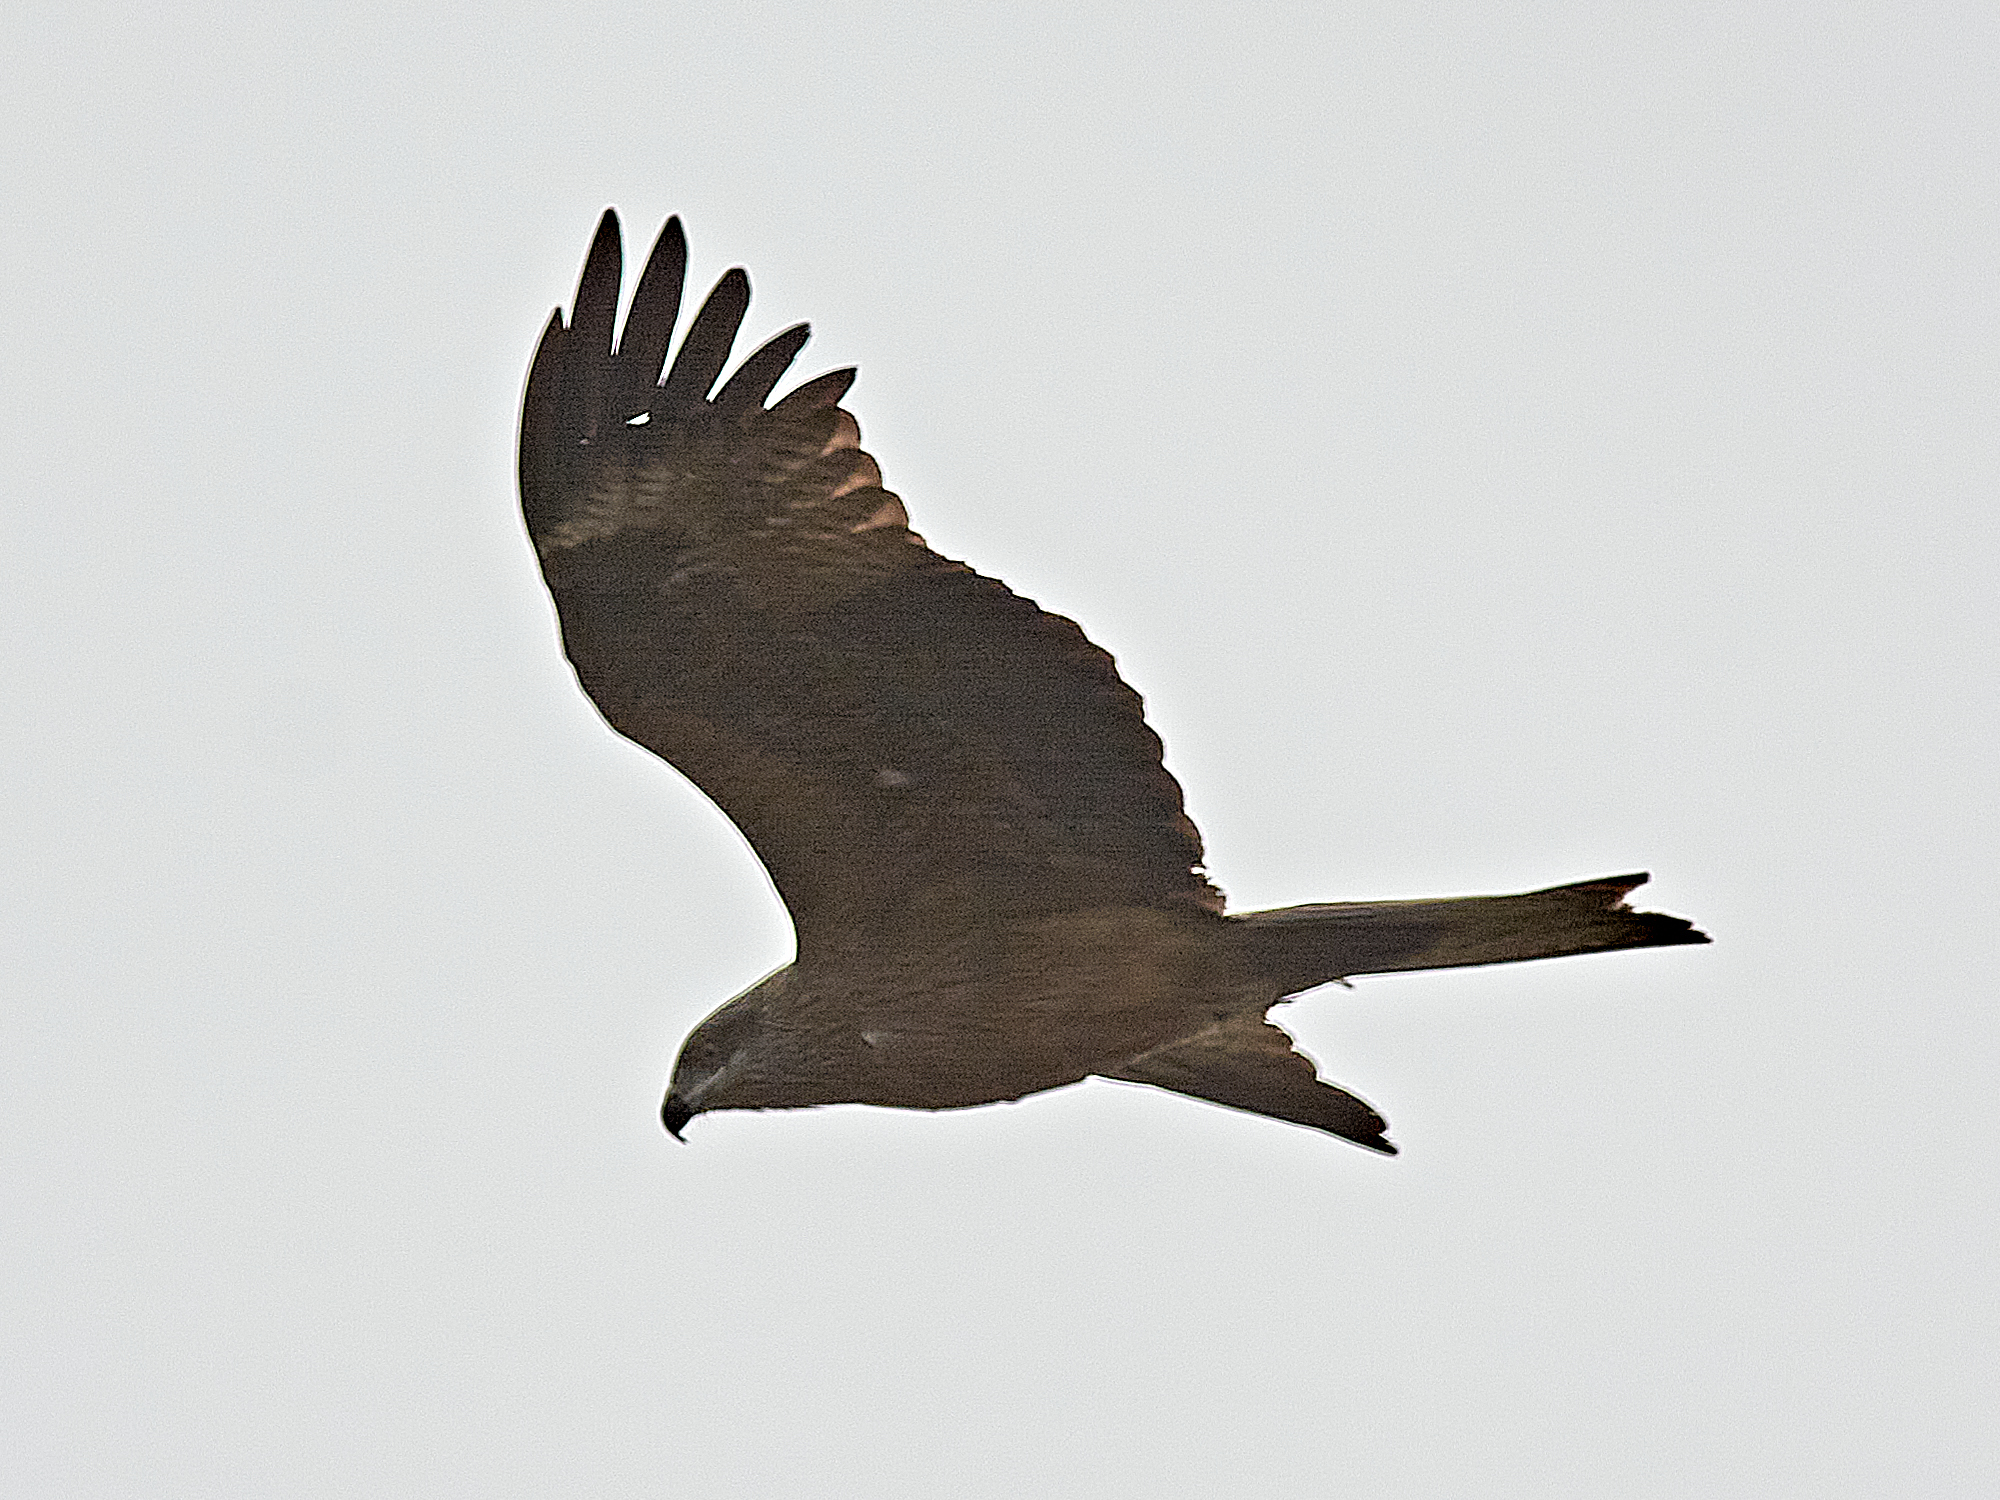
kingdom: Animalia
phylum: Chordata
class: Aves
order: Accipitriformes
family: Accipitridae
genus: Milvus
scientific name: Milvus migrans
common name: Black kite
